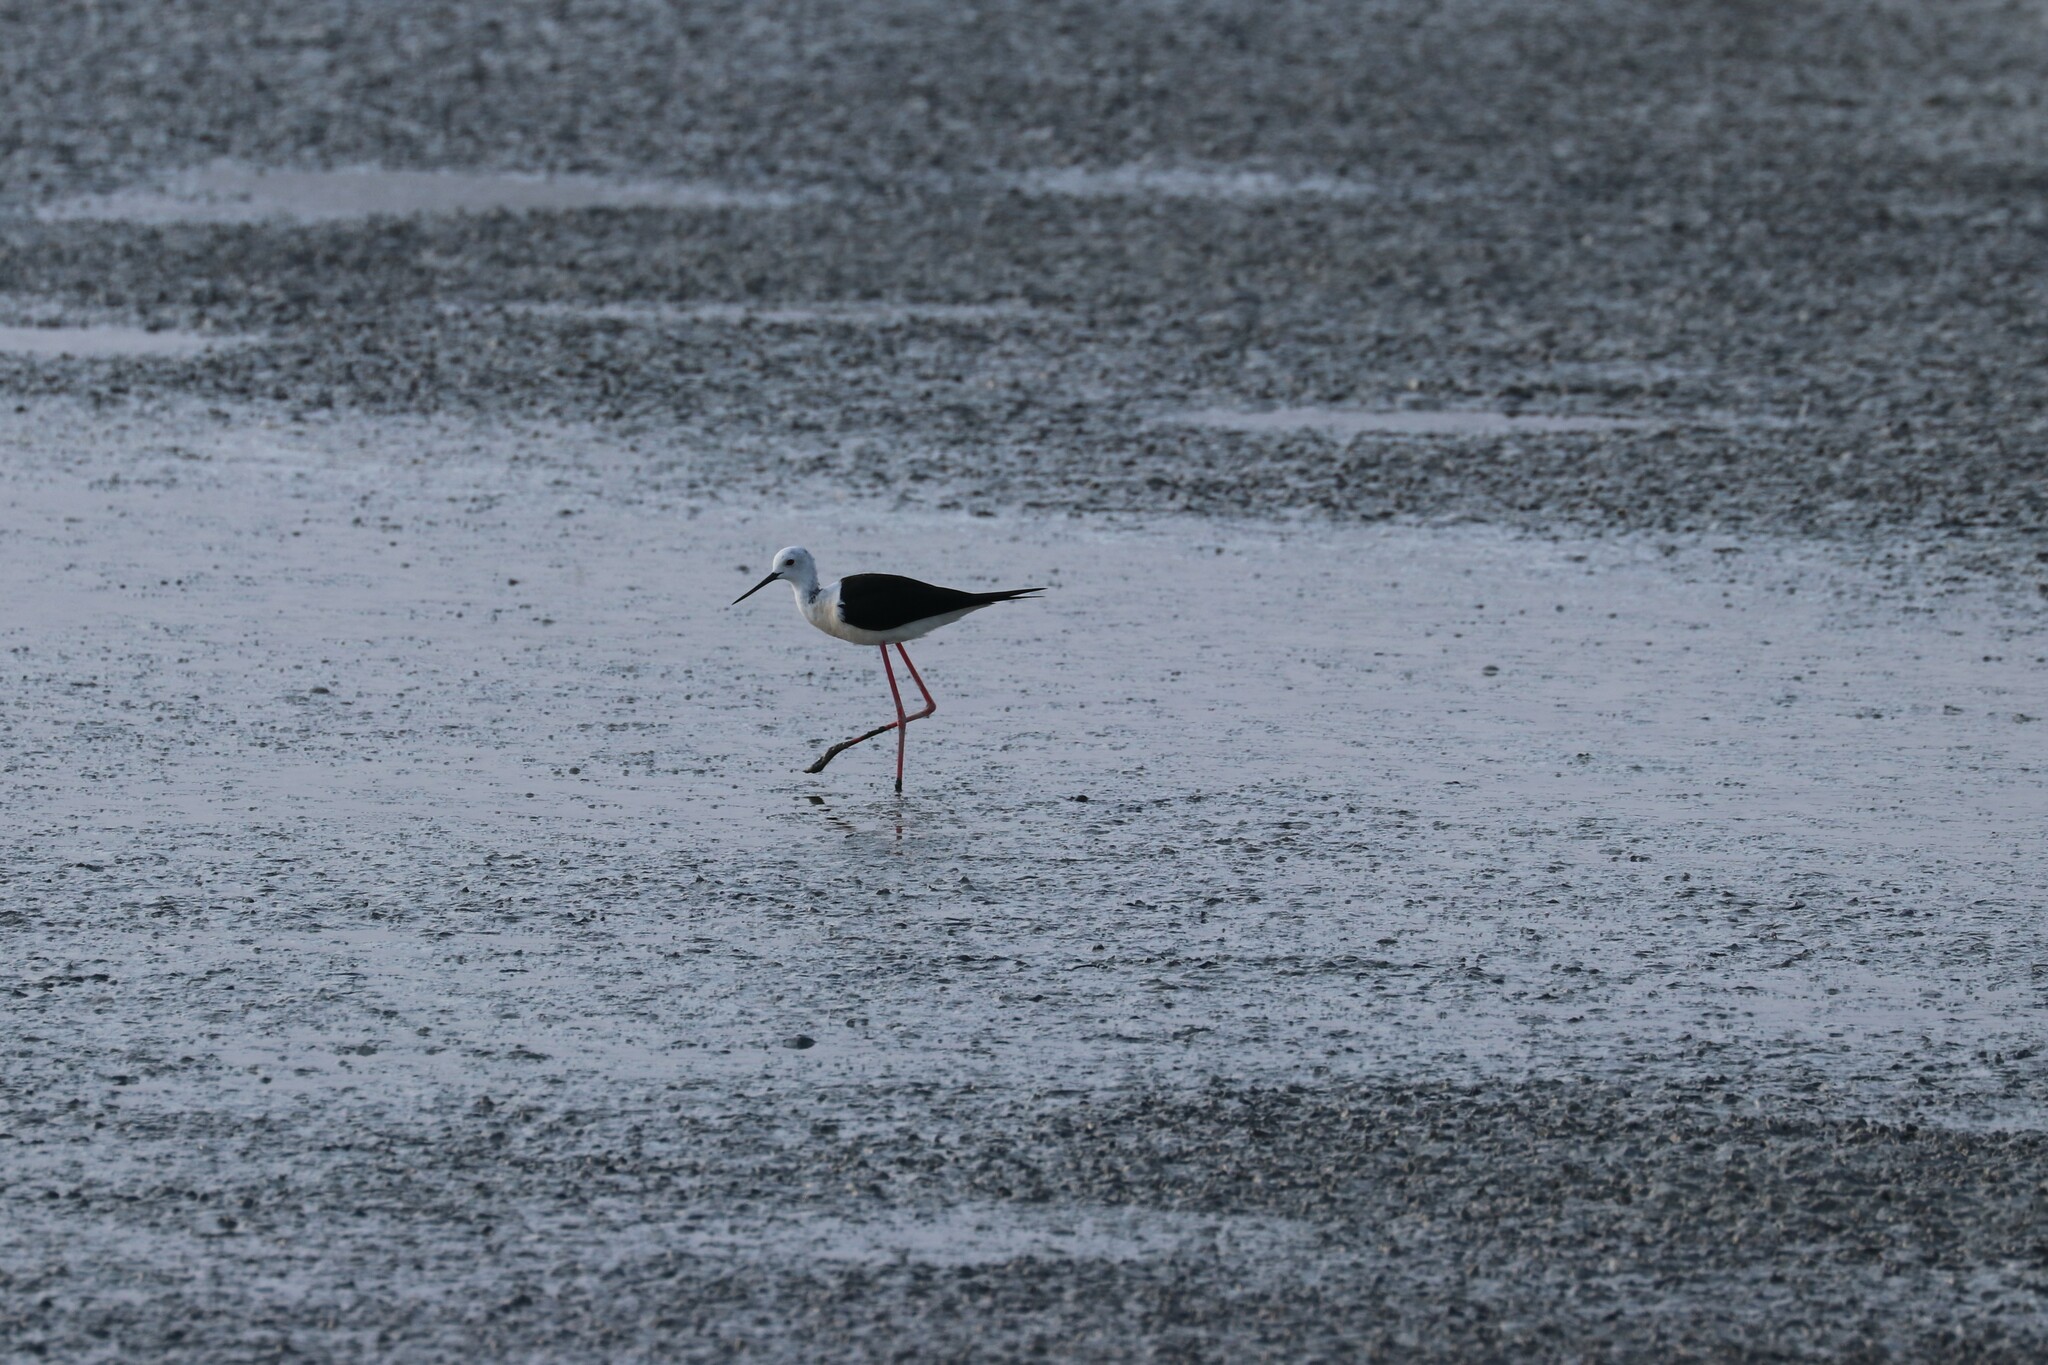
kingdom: Animalia
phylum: Chordata
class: Aves
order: Charadriiformes
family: Recurvirostridae
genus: Himantopus
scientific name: Himantopus himantopus
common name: Black-winged stilt
